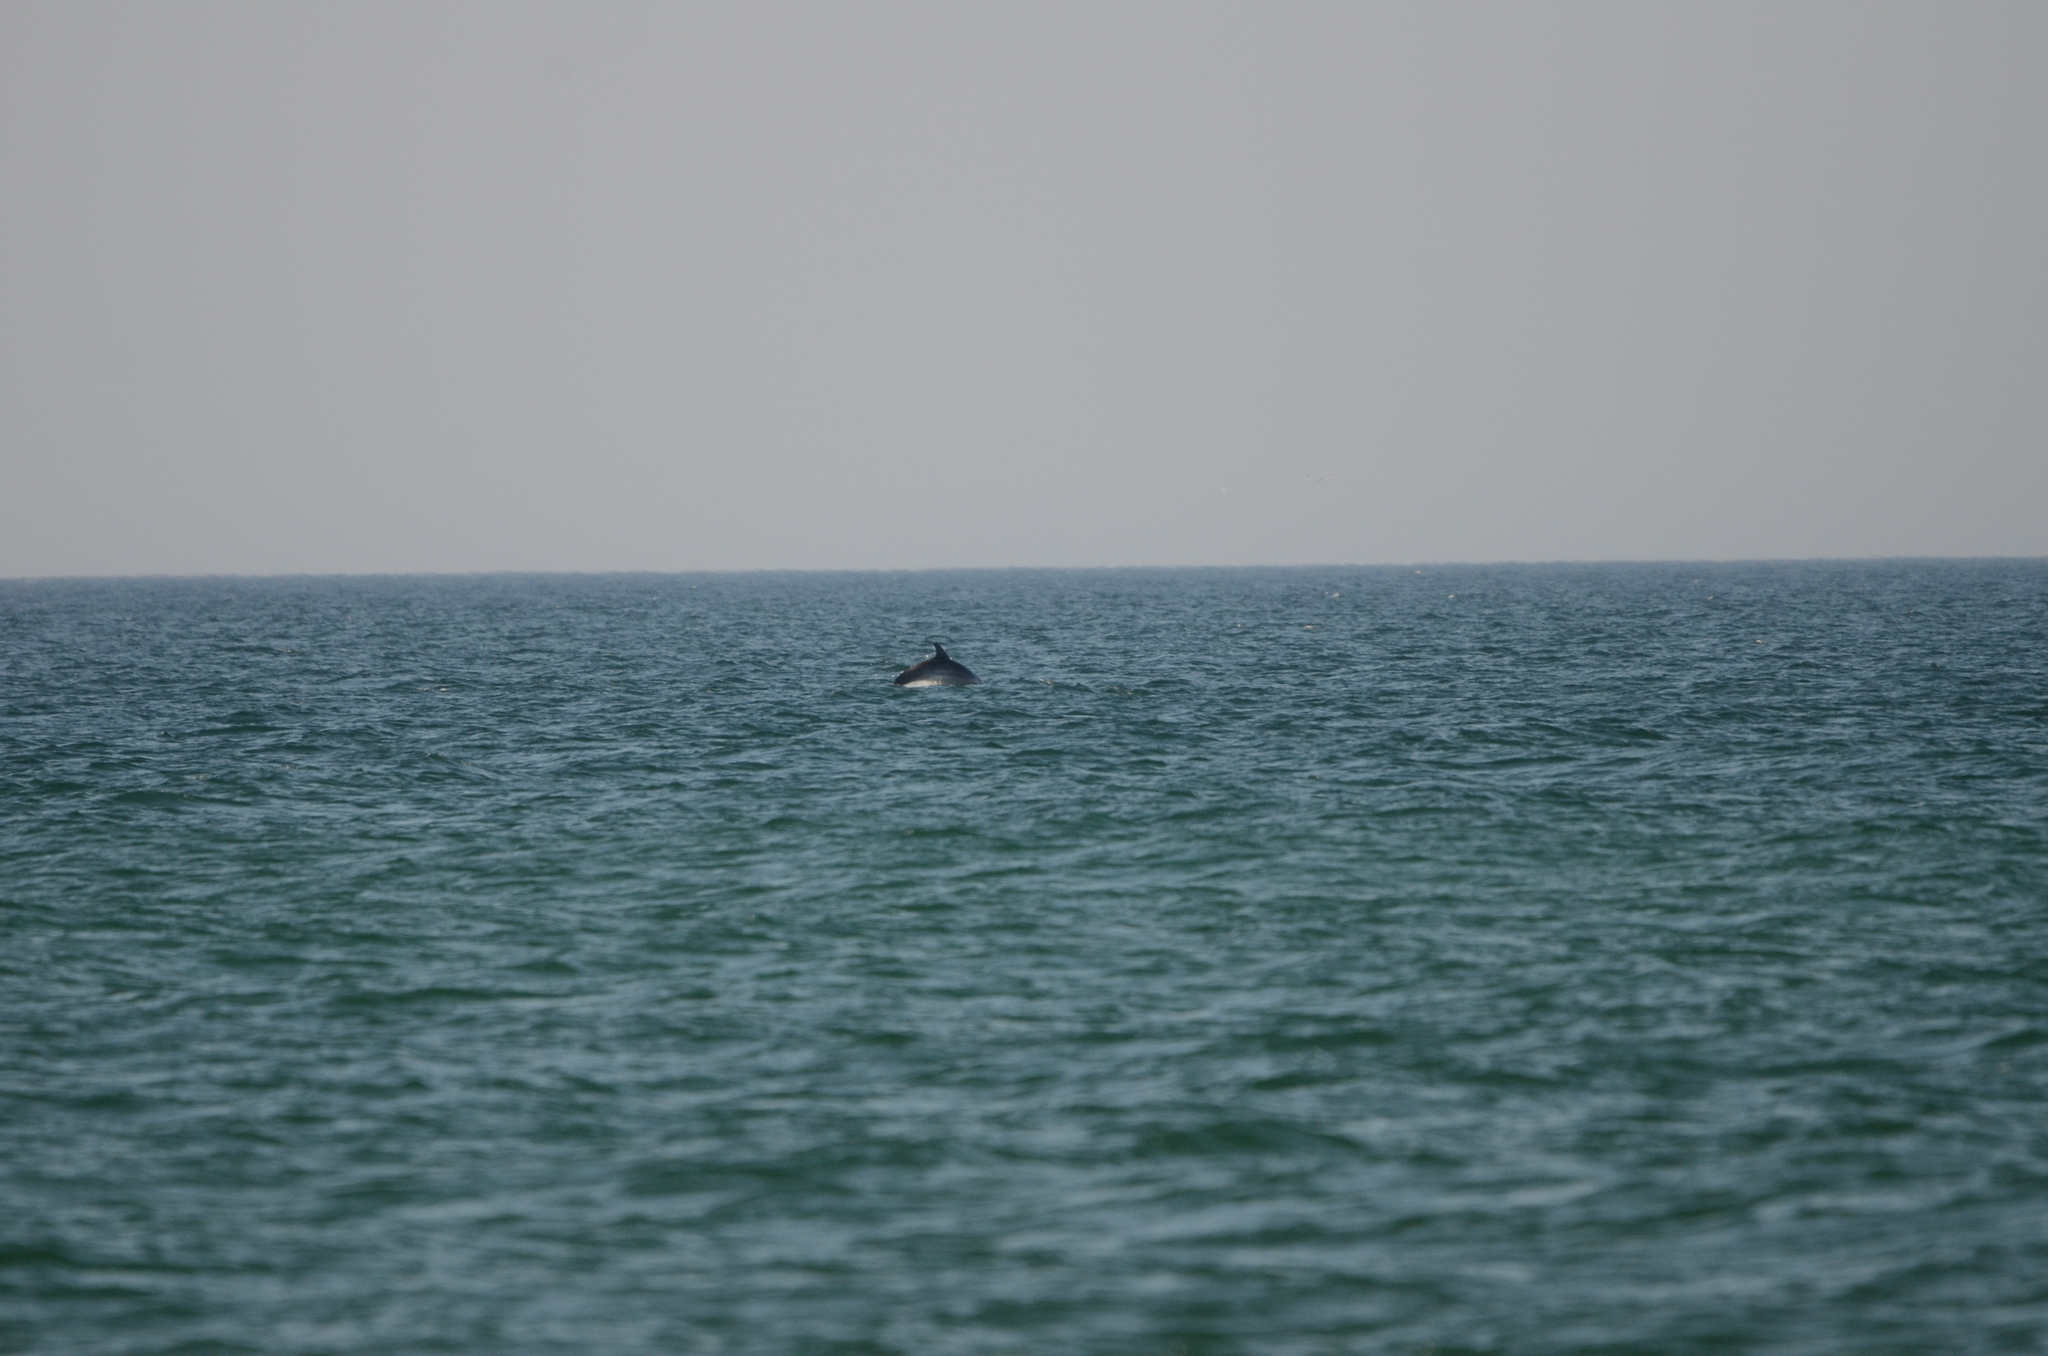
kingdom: Animalia
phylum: Chordata
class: Mammalia
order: Cetacea
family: Delphinidae
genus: Tursiops
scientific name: Tursiops truncatus
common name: Bottlenose dolphin
